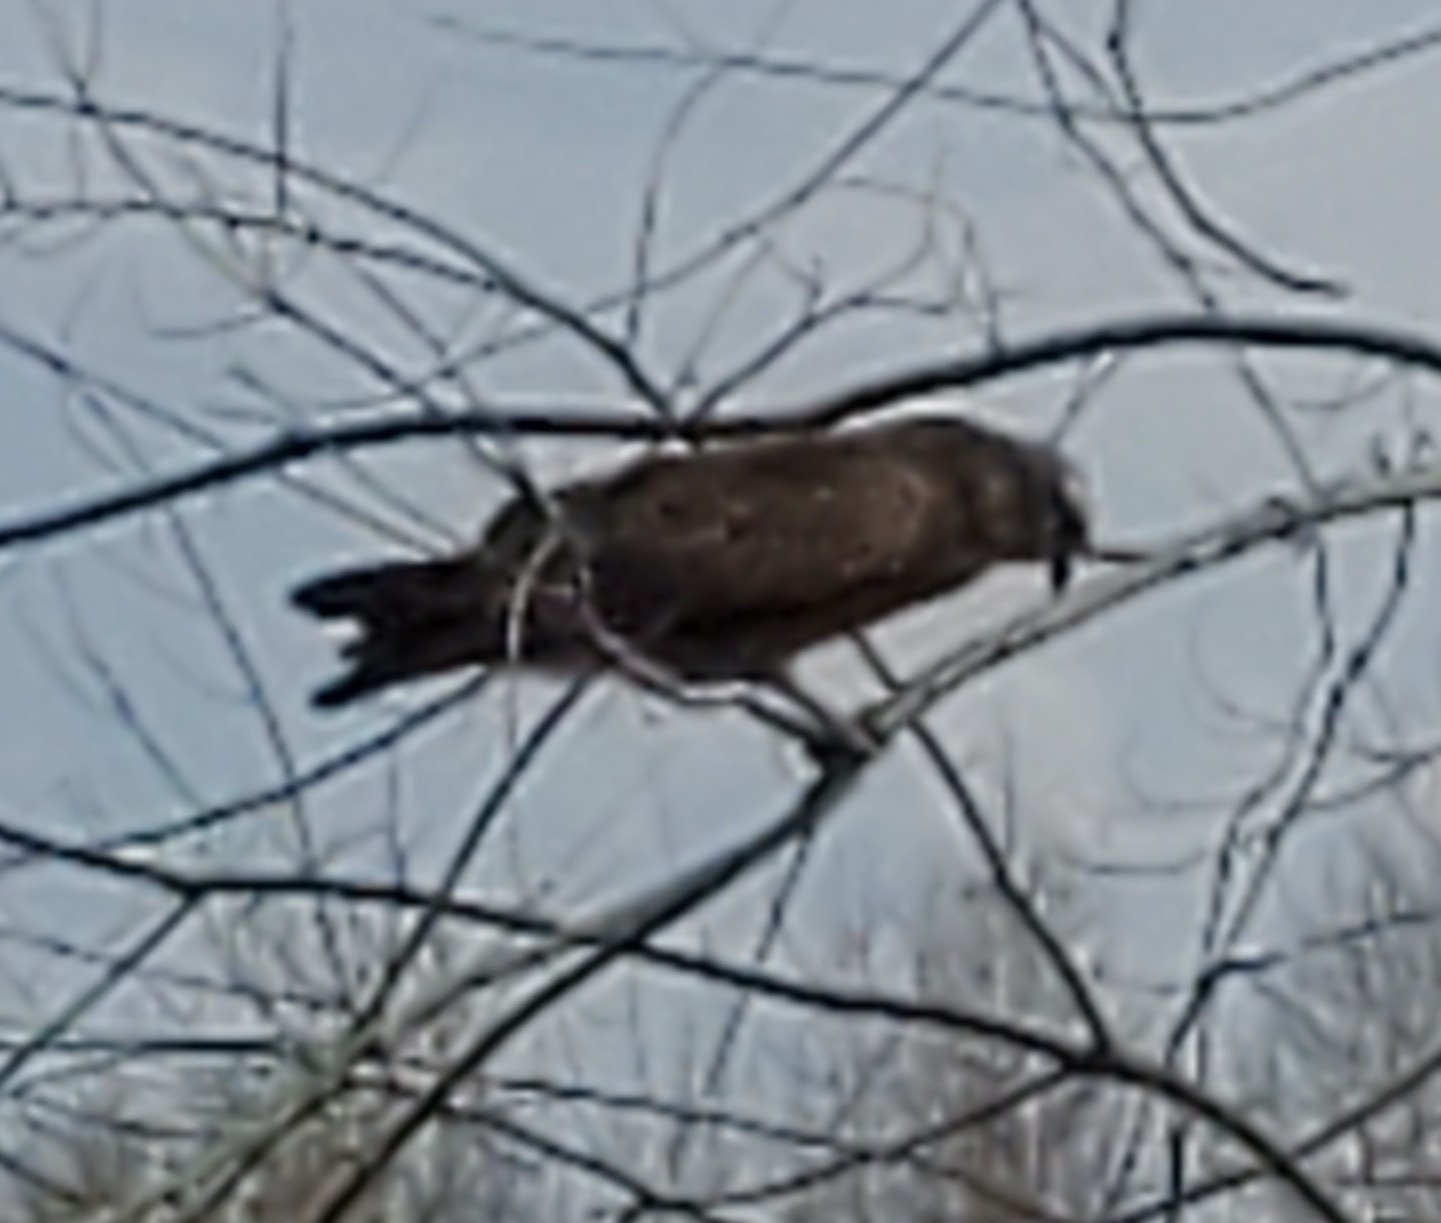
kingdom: Animalia
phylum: Chordata
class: Aves
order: Accipitriformes
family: Accipitridae
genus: Rostrhamus
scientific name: Rostrhamus sociabilis
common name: Snail kite
